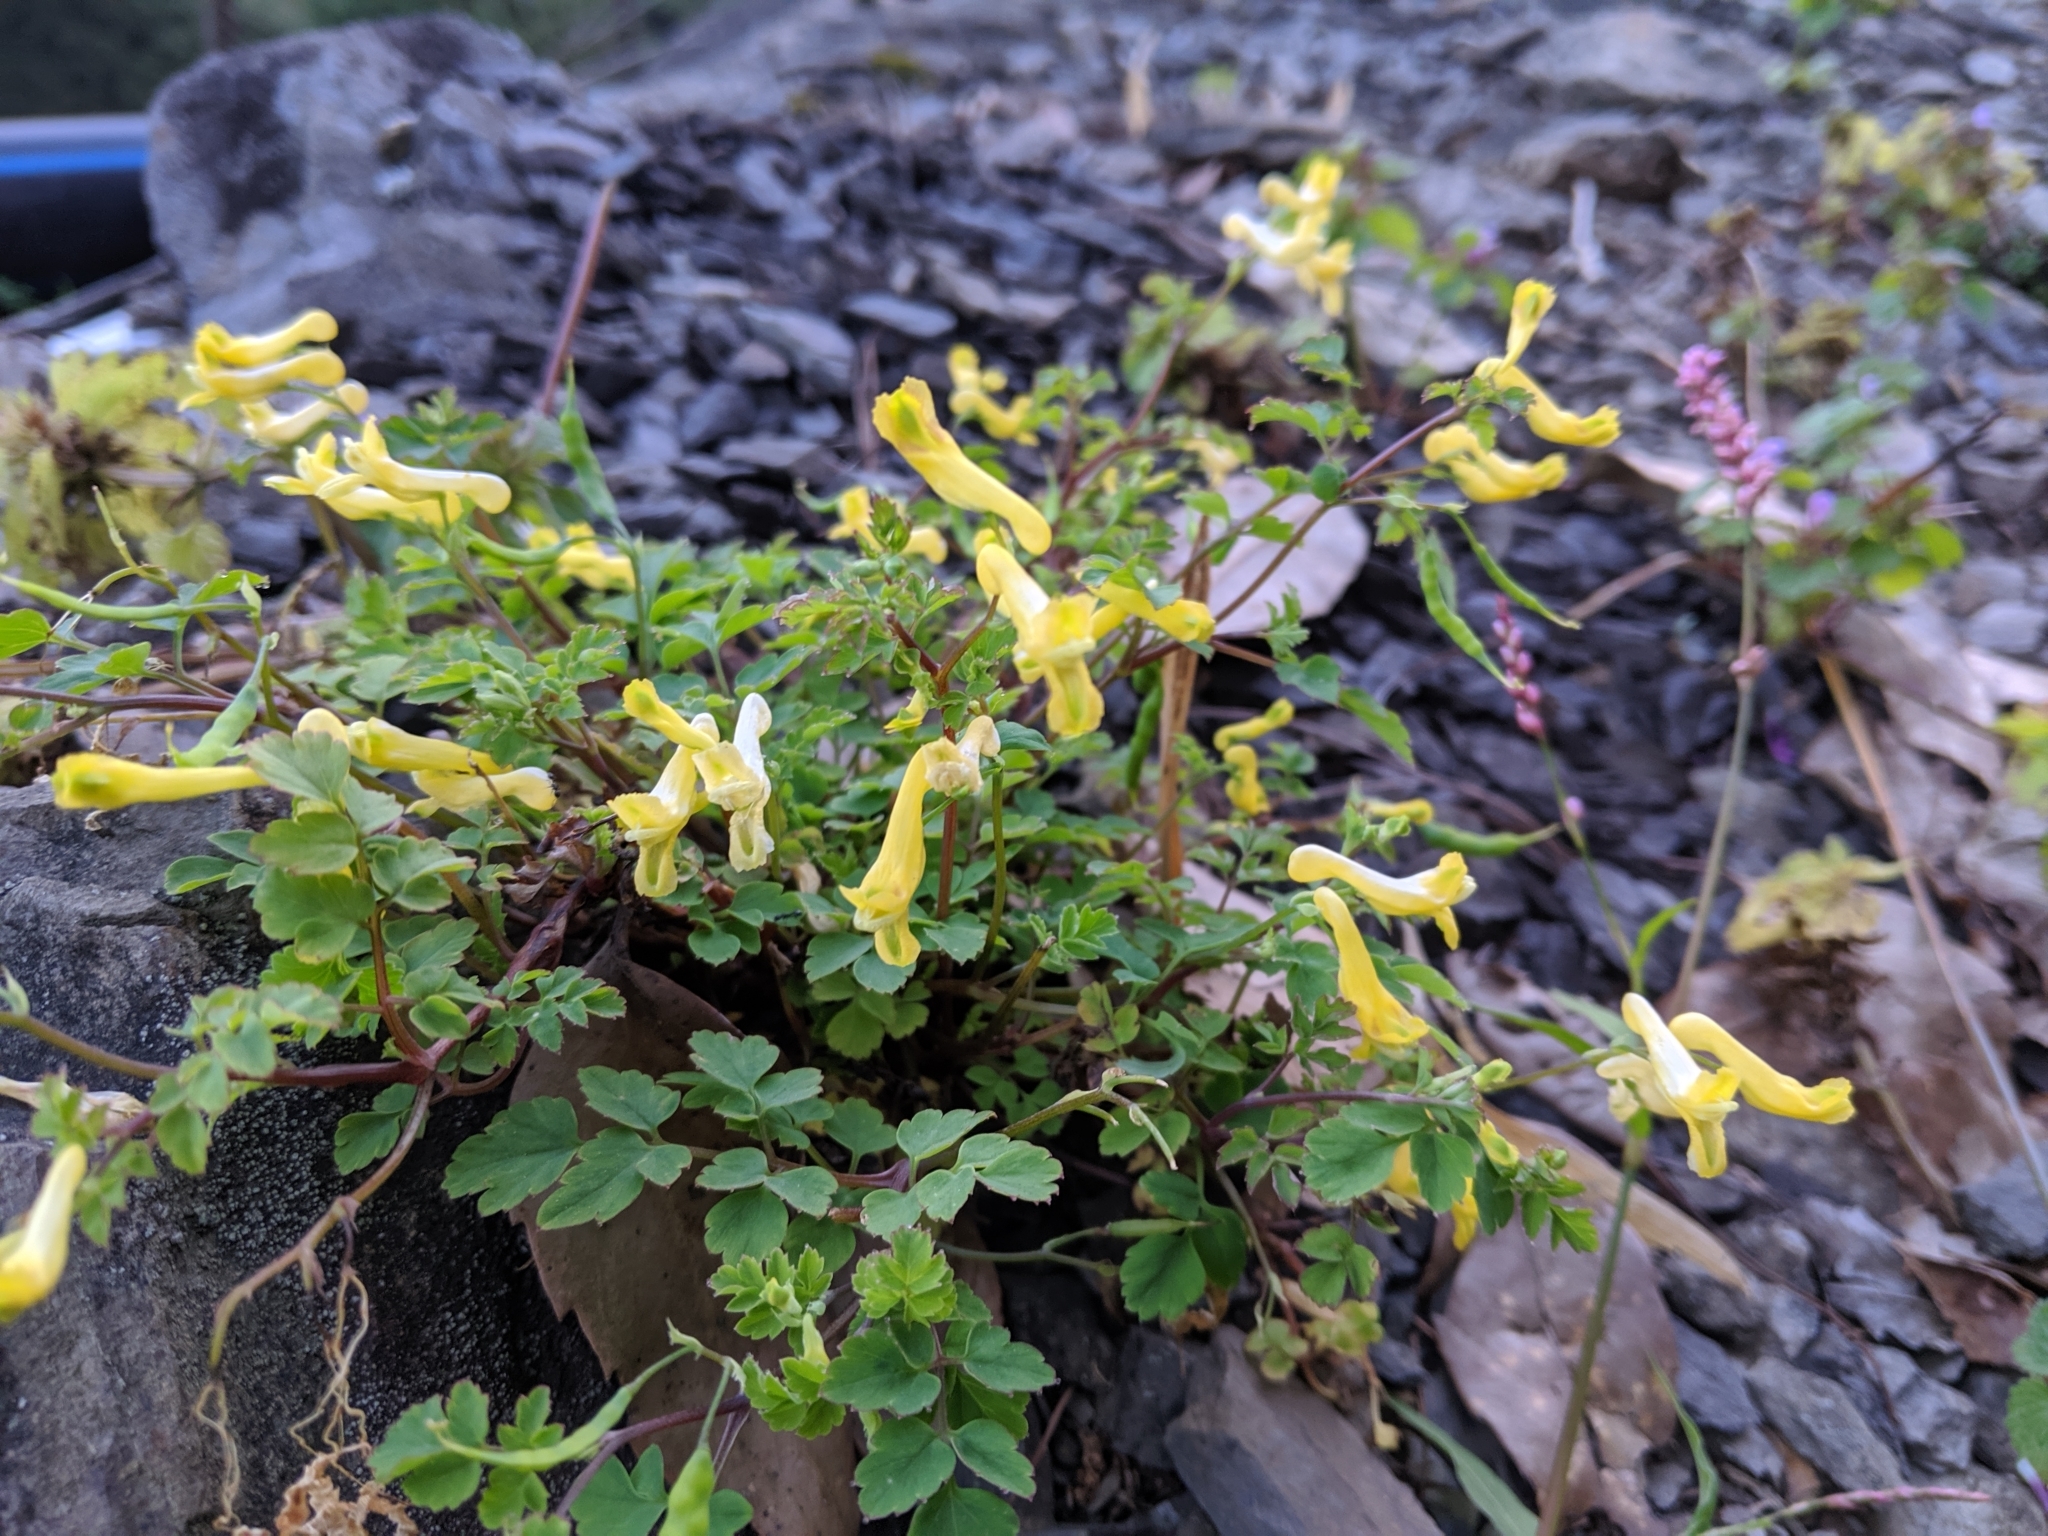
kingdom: Plantae
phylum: Tracheophyta
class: Magnoliopsida
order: Ranunculales
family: Papaveraceae
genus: Corydalis
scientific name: Corydalis balansae
